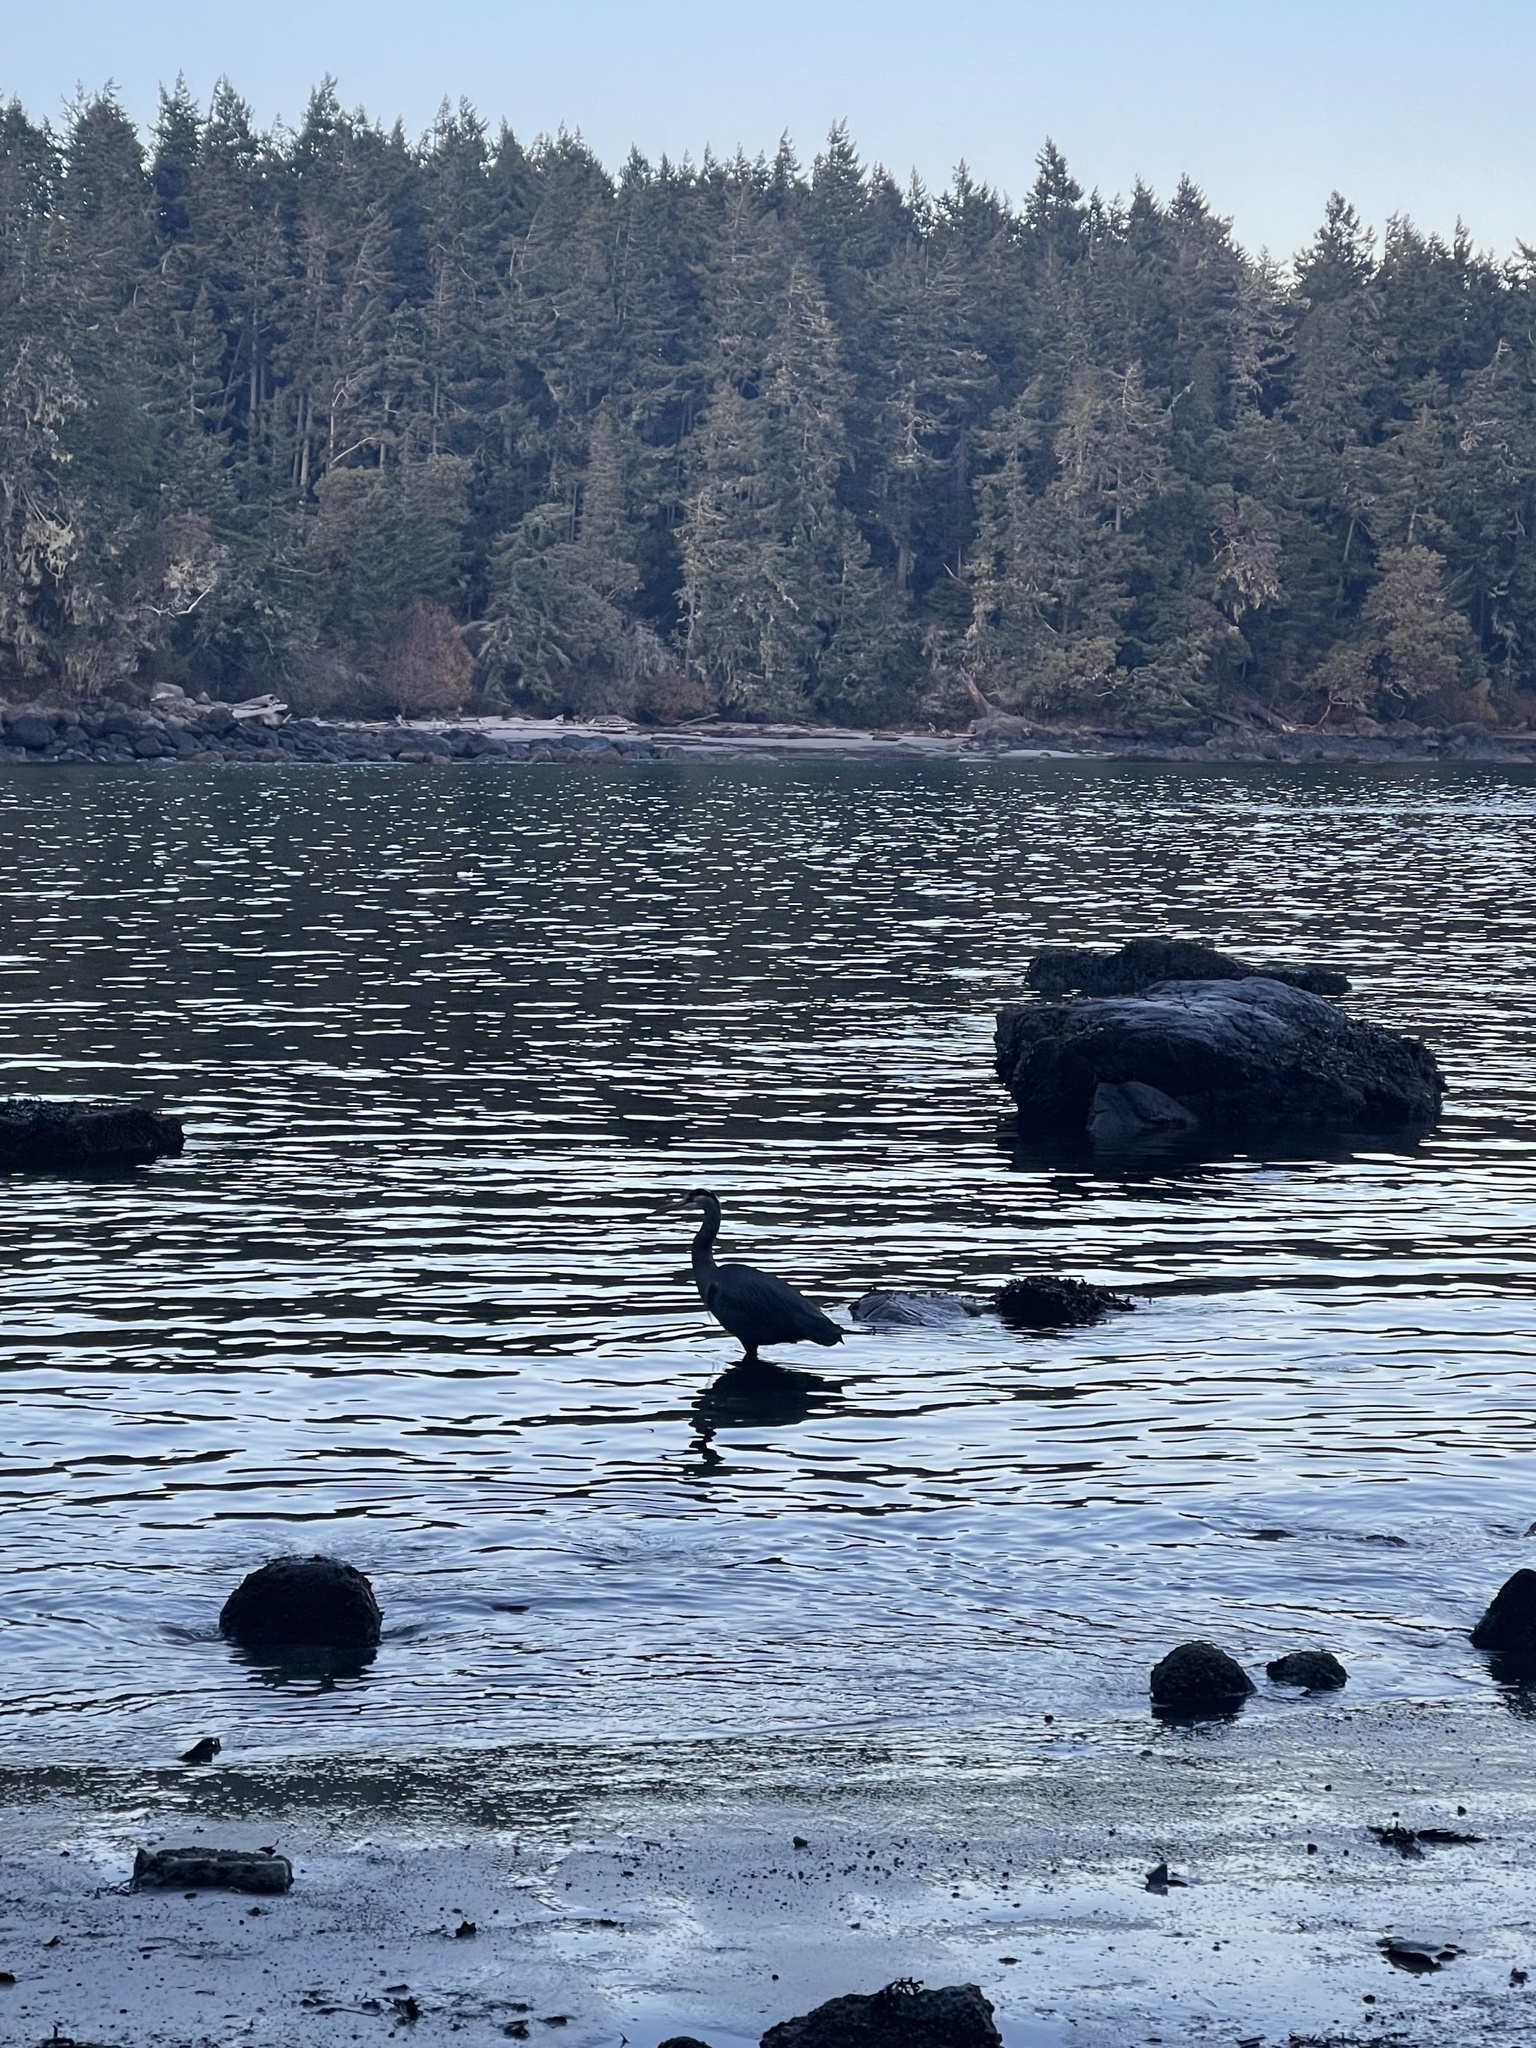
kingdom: Animalia
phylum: Chordata
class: Aves
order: Pelecaniformes
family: Ardeidae
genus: Ardea
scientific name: Ardea herodias
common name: Great blue heron
